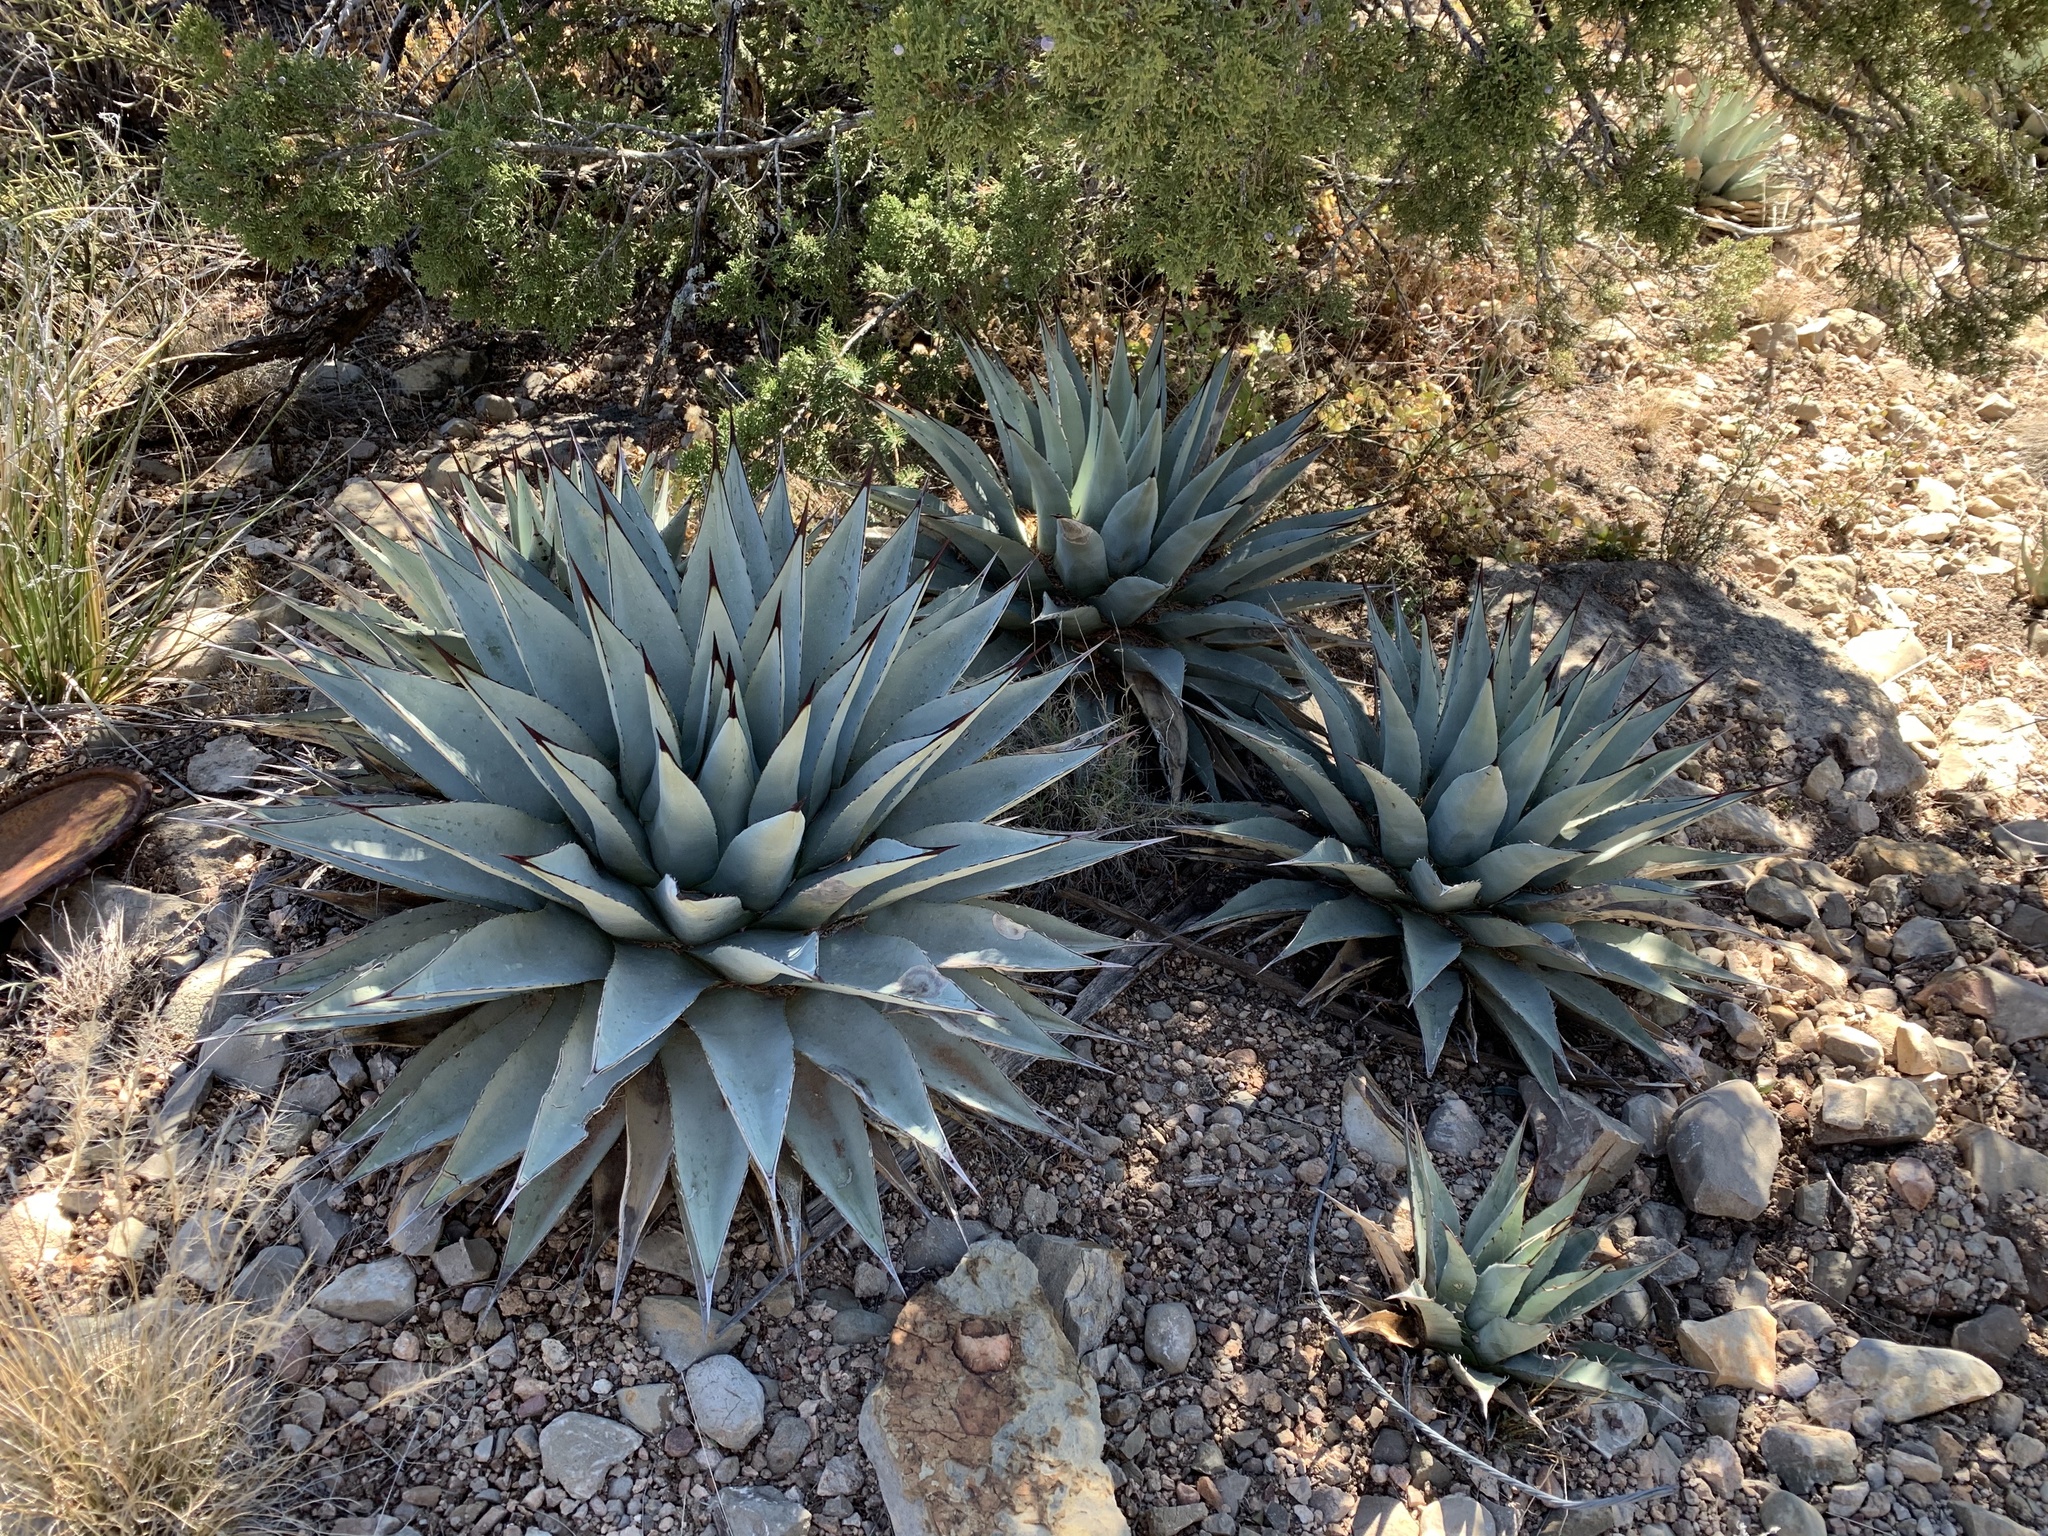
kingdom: Plantae
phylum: Tracheophyta
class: Liliopsida
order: Asparagales
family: Asparagaceae
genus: Agave
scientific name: Agave parryi
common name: Parry's agave
